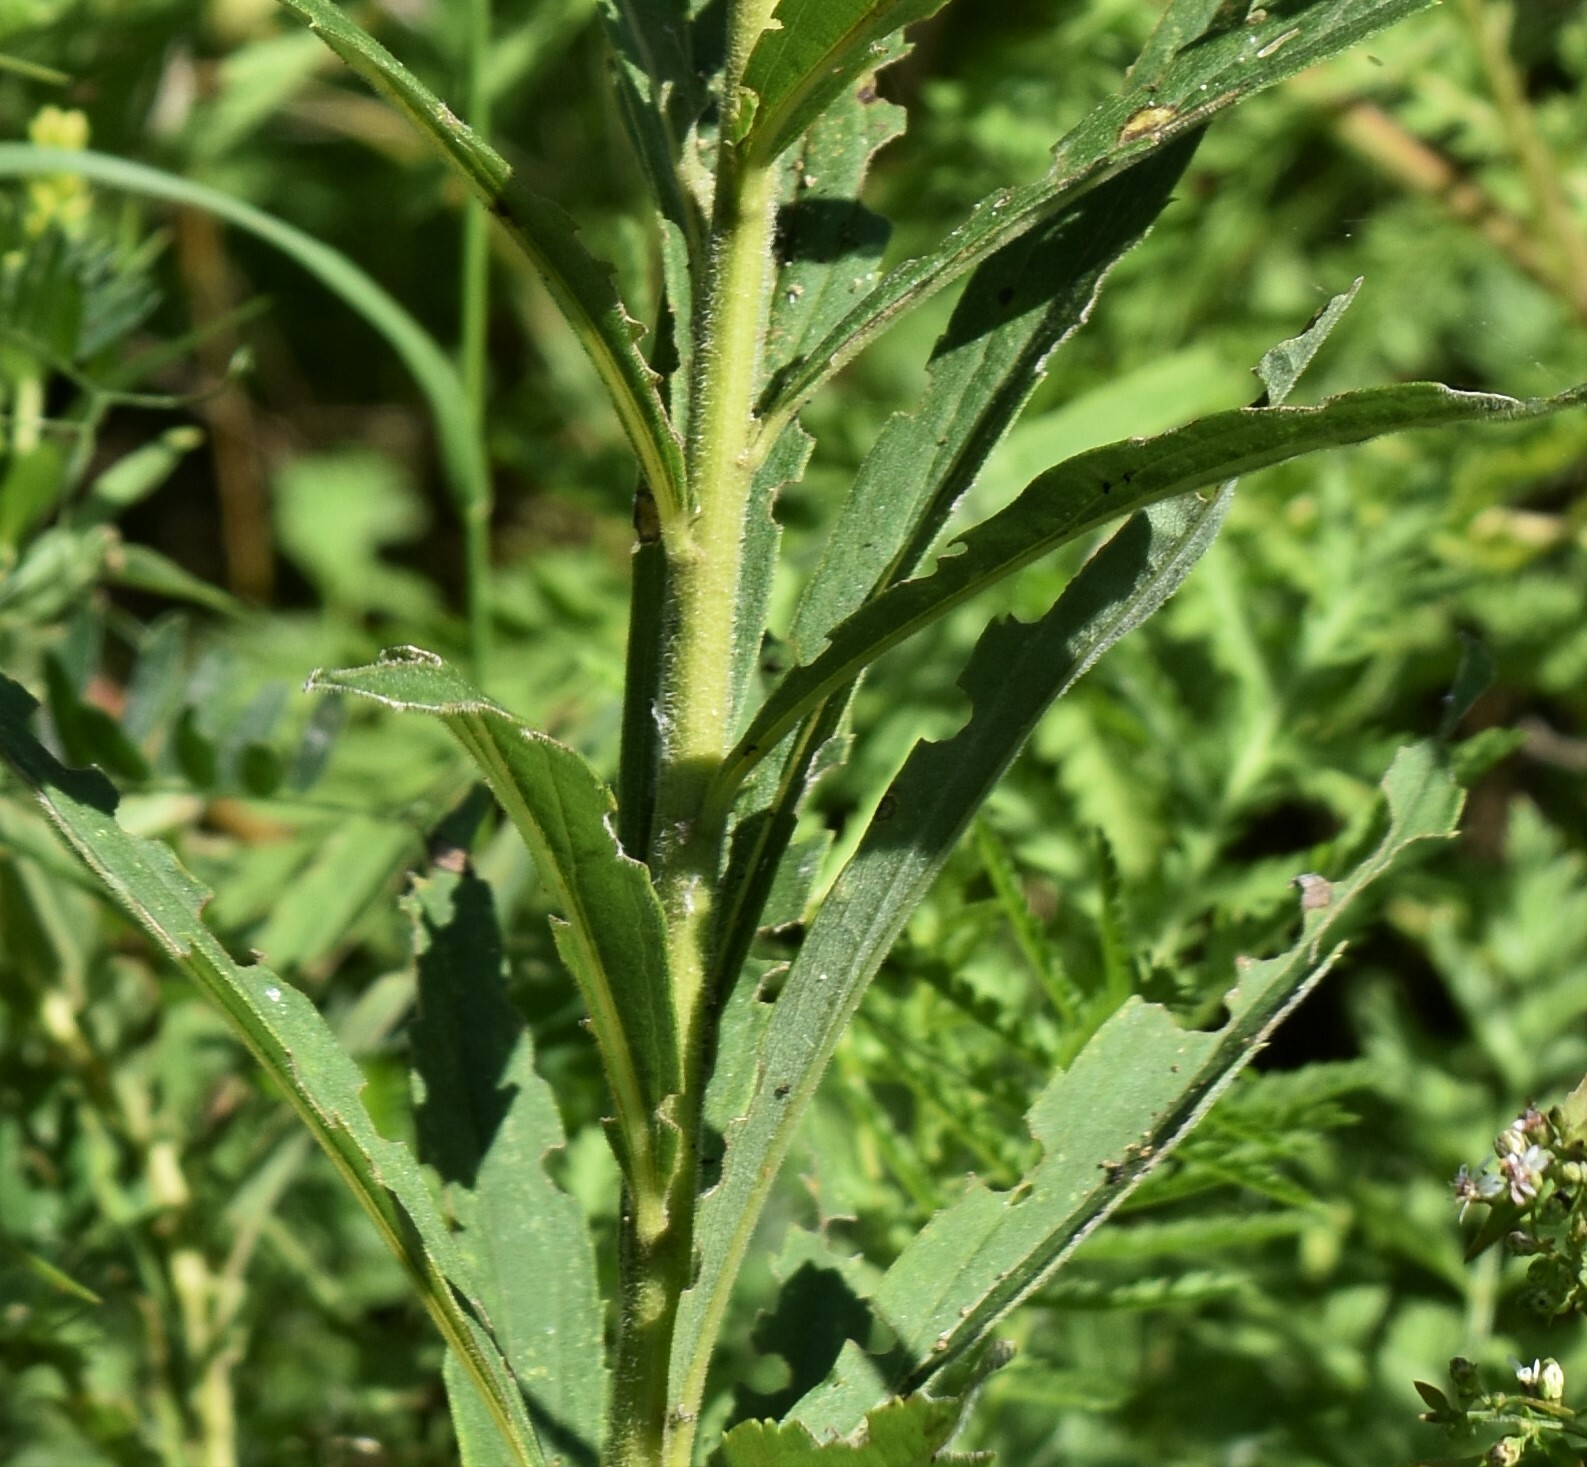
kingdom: Plantae
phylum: Tracheophyta
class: Magnoliopsida
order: Asterales
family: Asteraceae
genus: Solidago
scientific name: Solidago altissima
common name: Late goldenrod
